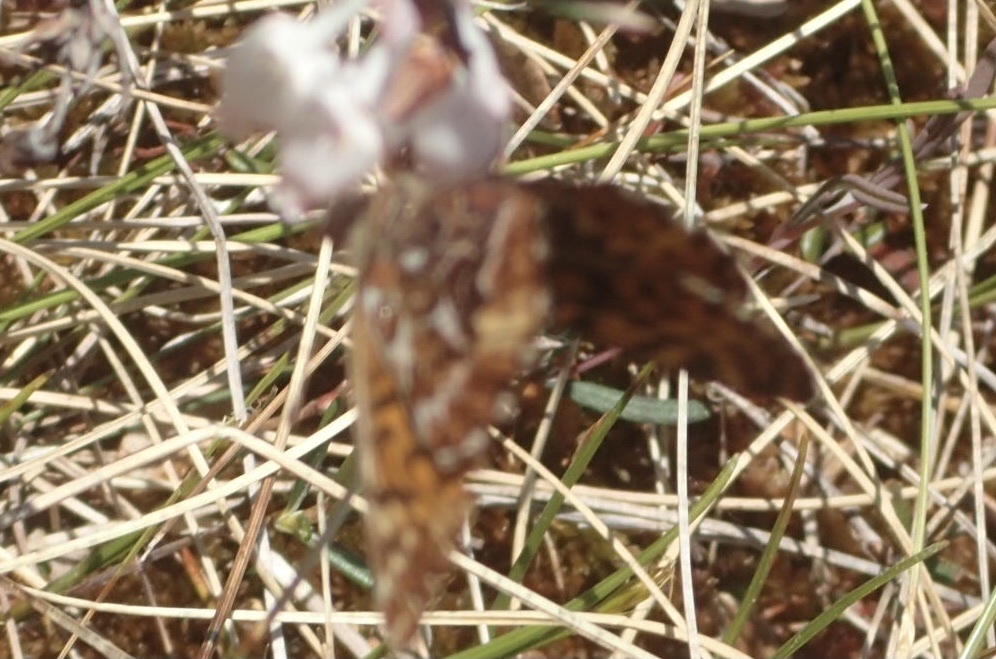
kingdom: Animalia
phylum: Arthropoda
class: Insecta
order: Lepidoptera
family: Nymphalidae
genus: Boloria
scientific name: Boloria freija
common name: Freija fritillary
